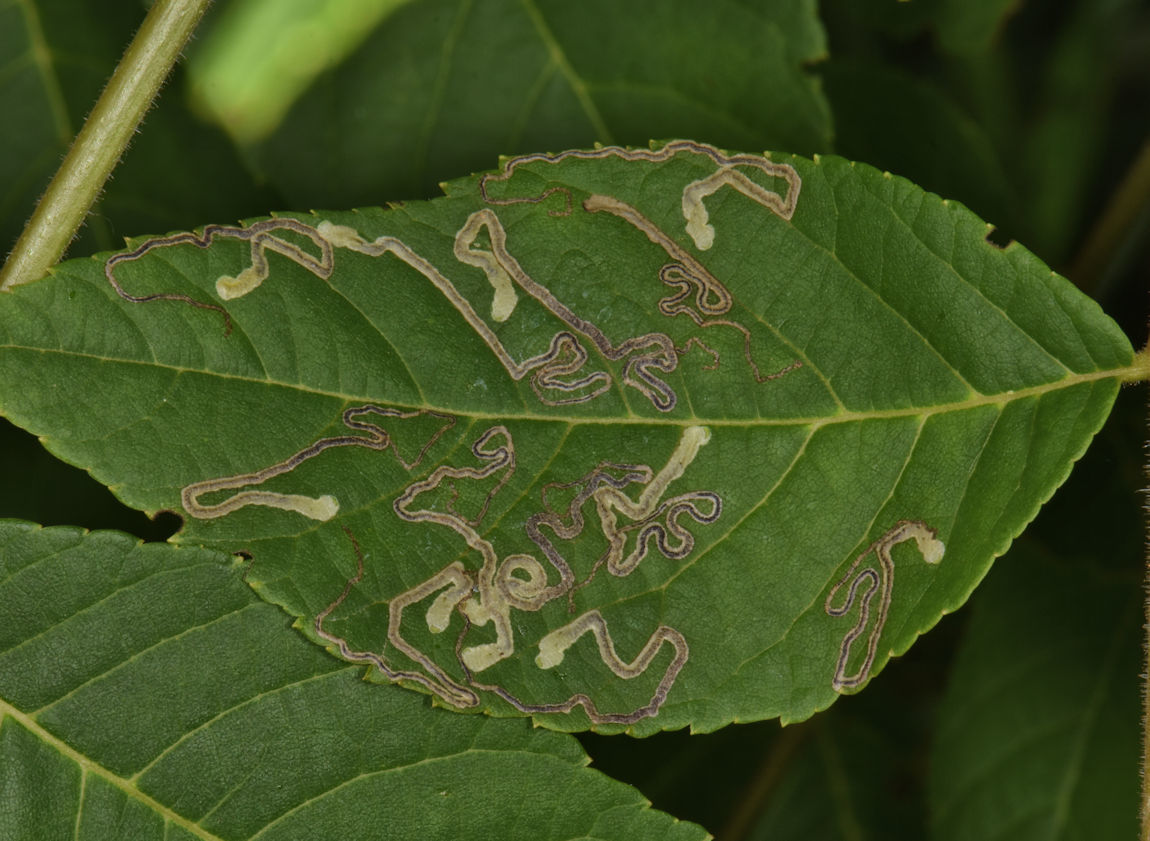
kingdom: Animalia
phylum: Arthropoda
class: Insecta
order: Lepidoptera
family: Nepticulidae
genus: Stigmella
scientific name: Stigmella juglandifoliella
